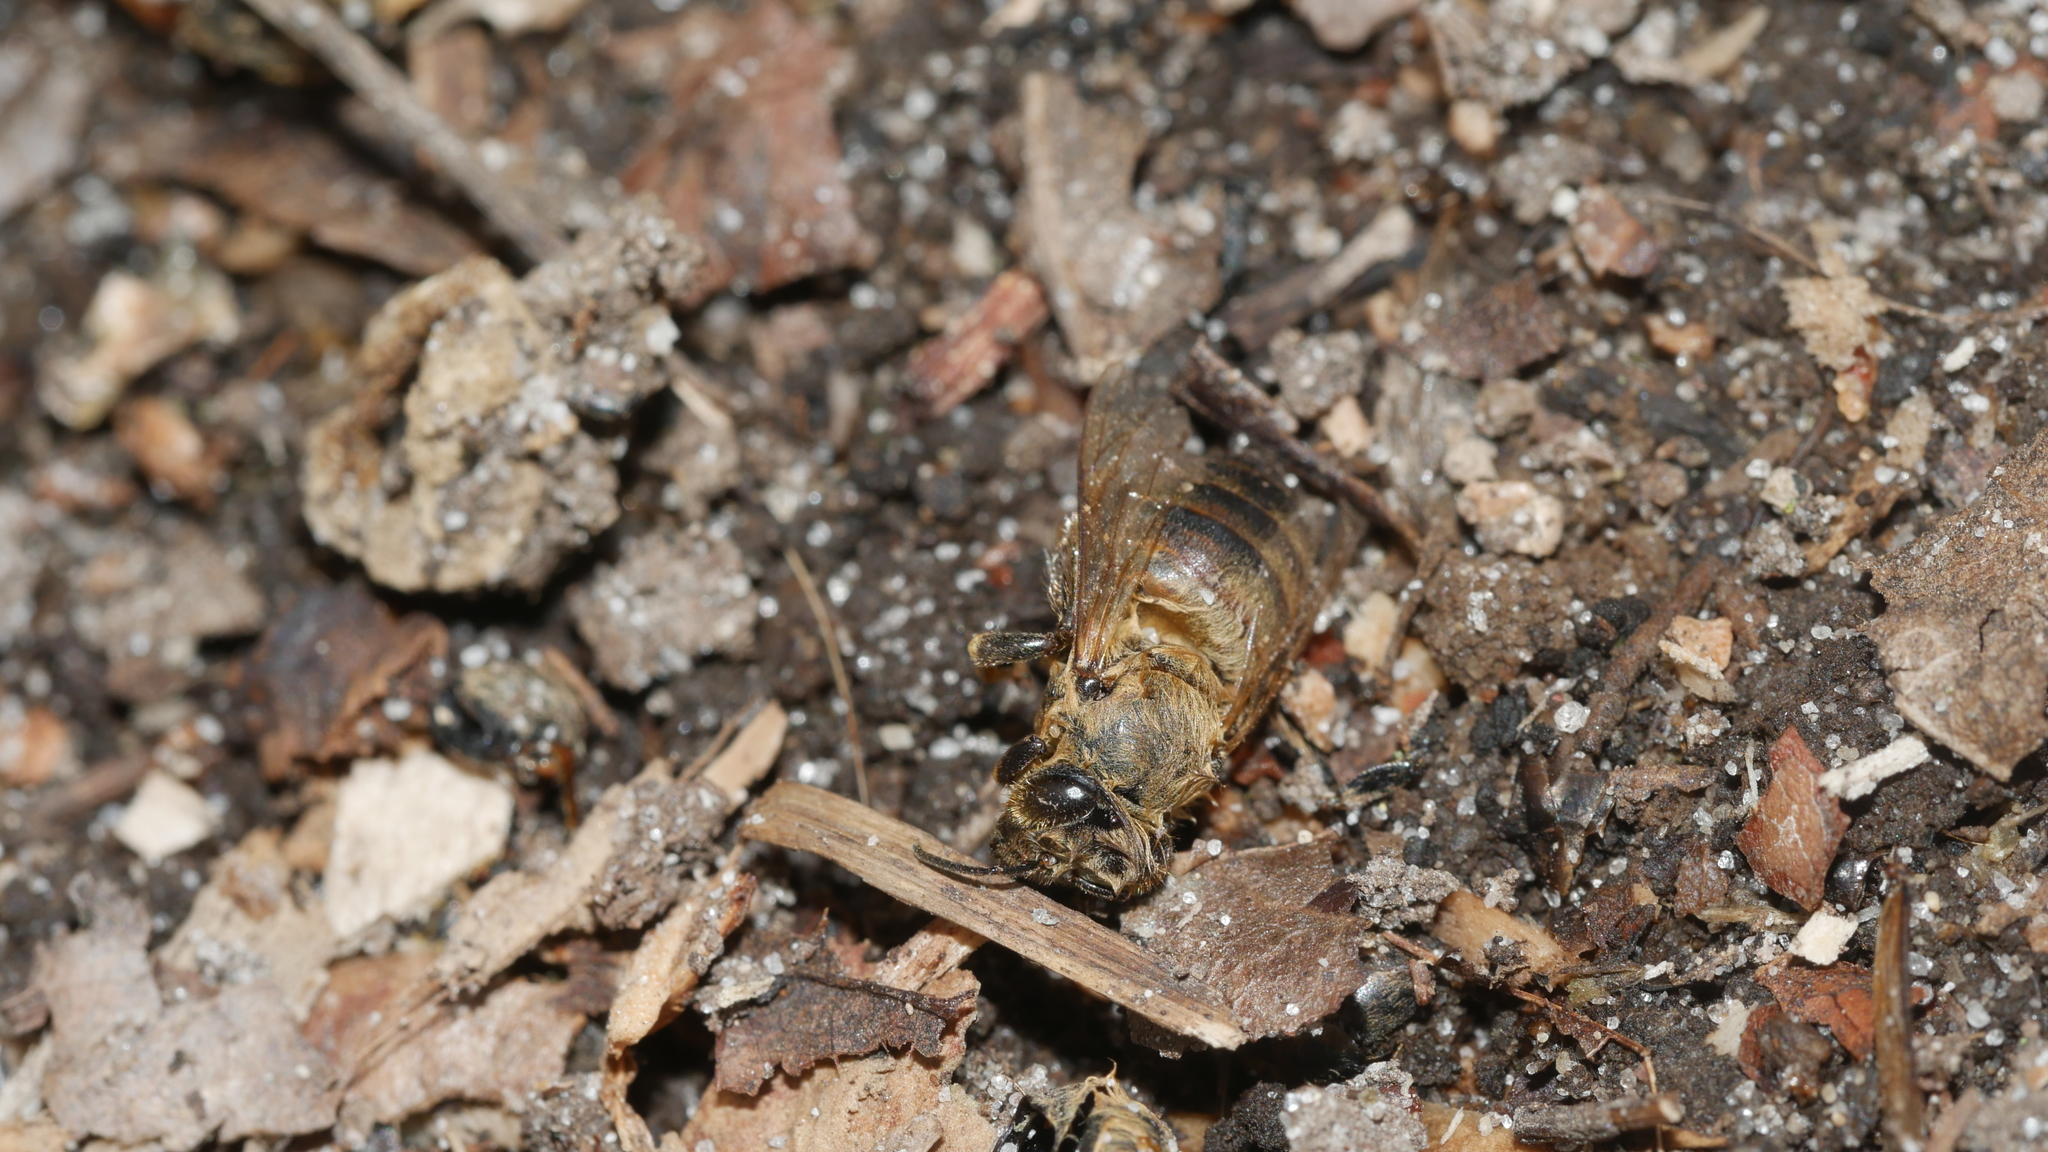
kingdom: Animalia
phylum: Arthropoda
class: Insecta
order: Hymenoptera
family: Apidae
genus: Apis
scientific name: Apis mellifera
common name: Honey bee
